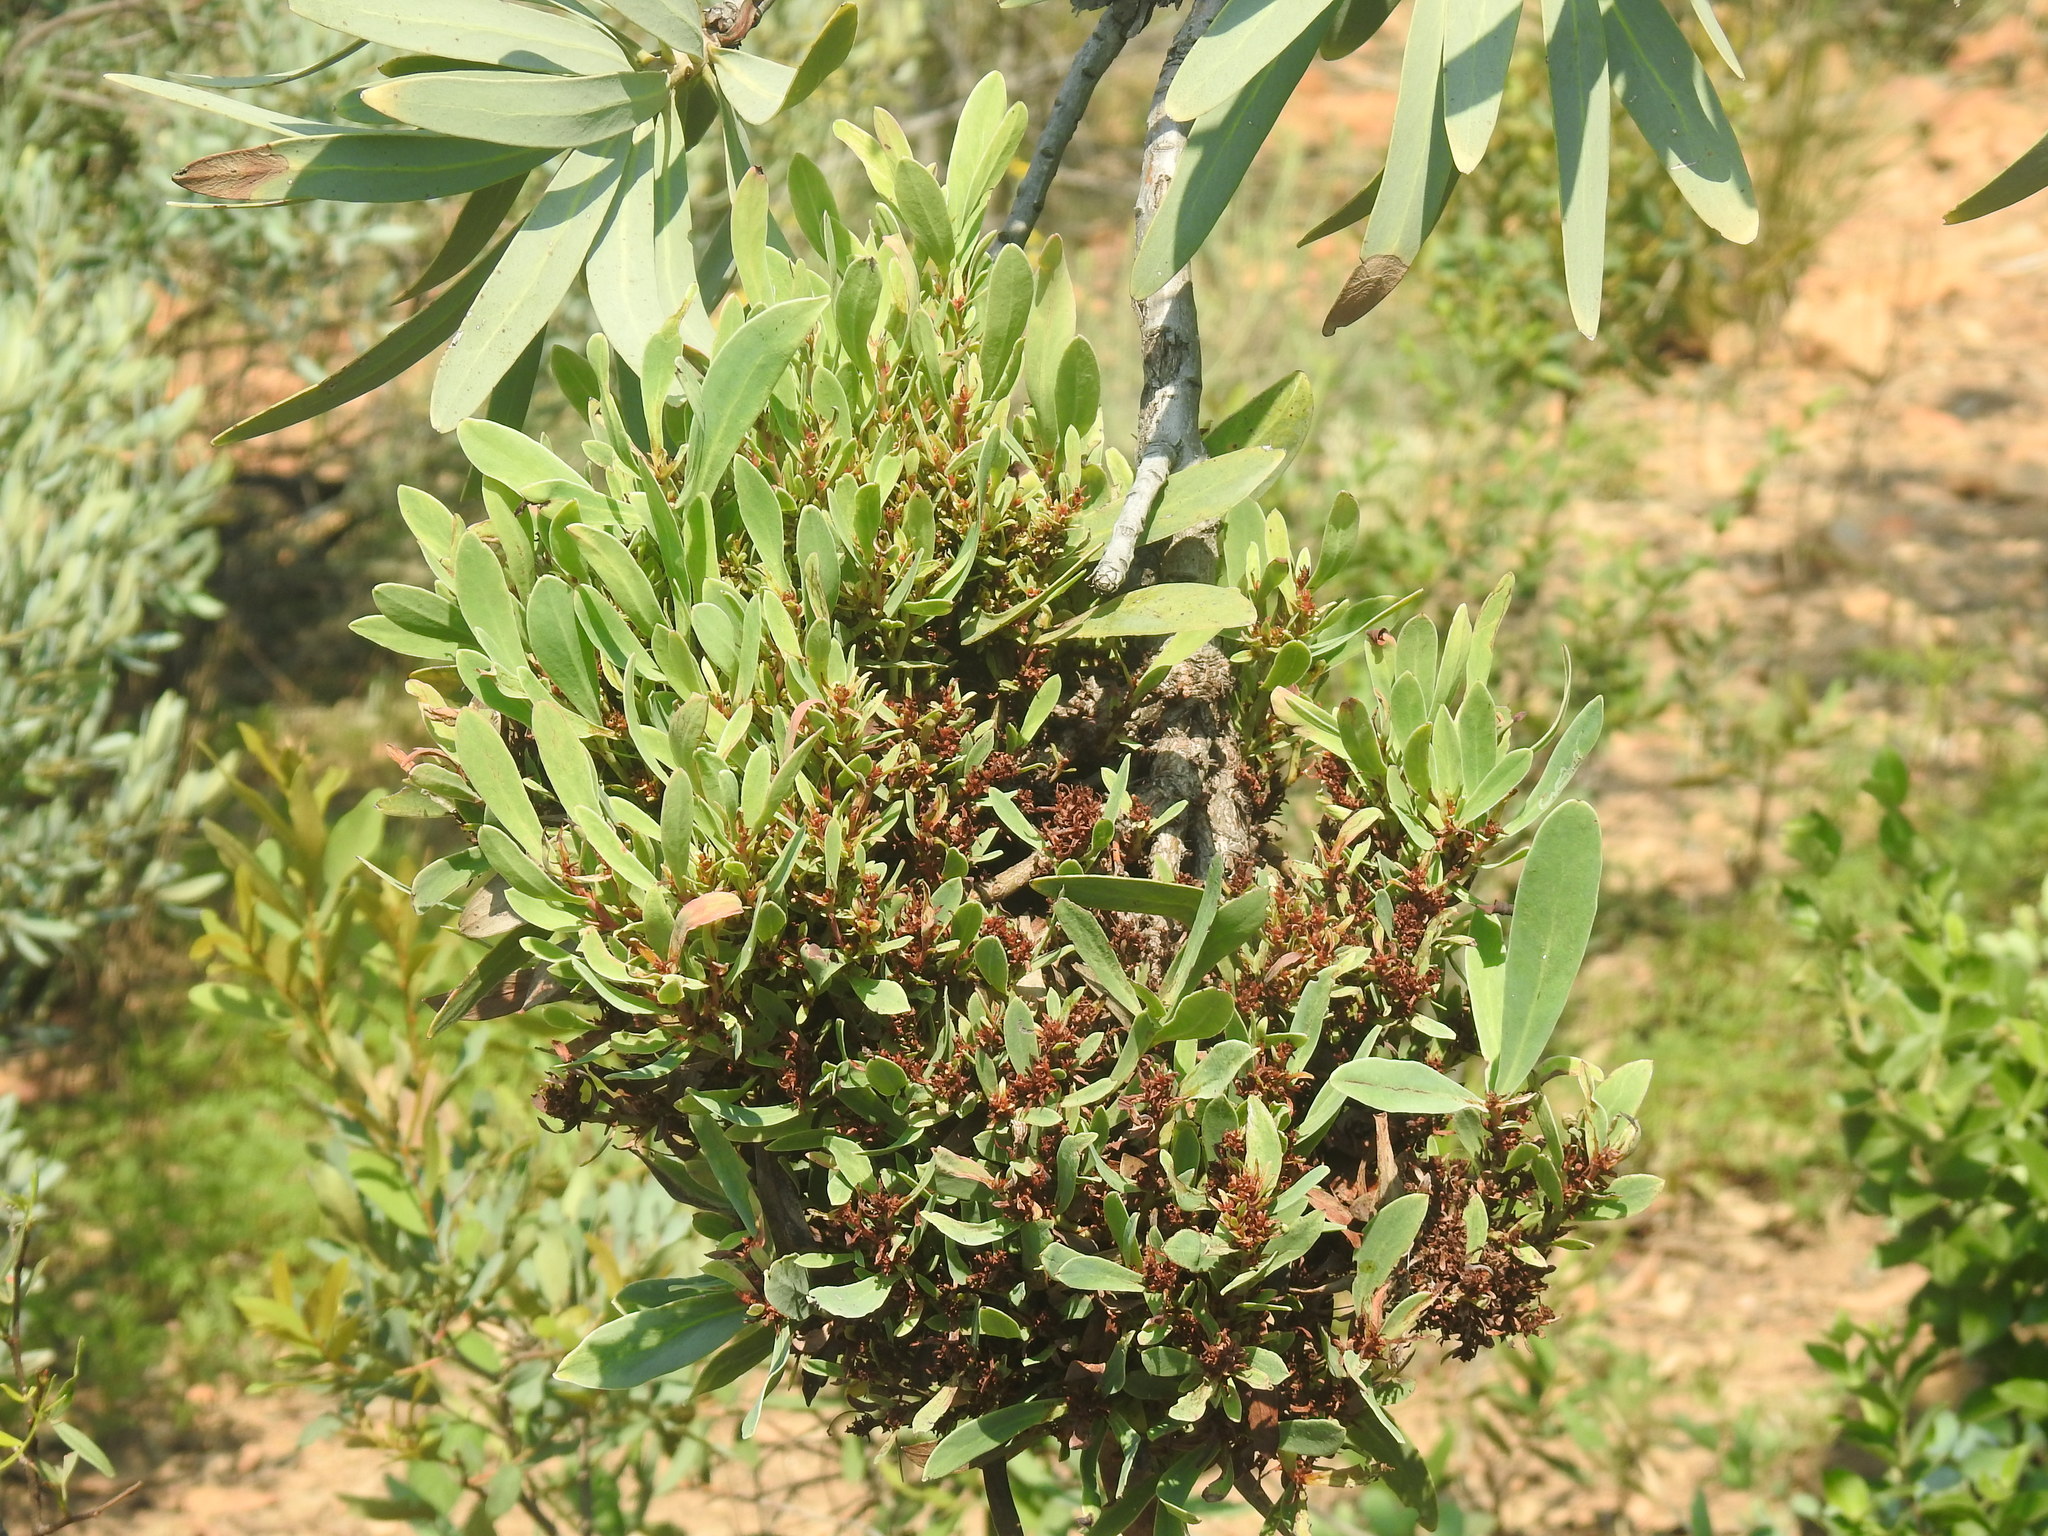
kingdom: Bacteria
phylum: Firmicutes
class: Bacilli
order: Acholeplasmatales
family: Acholeplasmataceae
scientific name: Acholeplasmataceae
